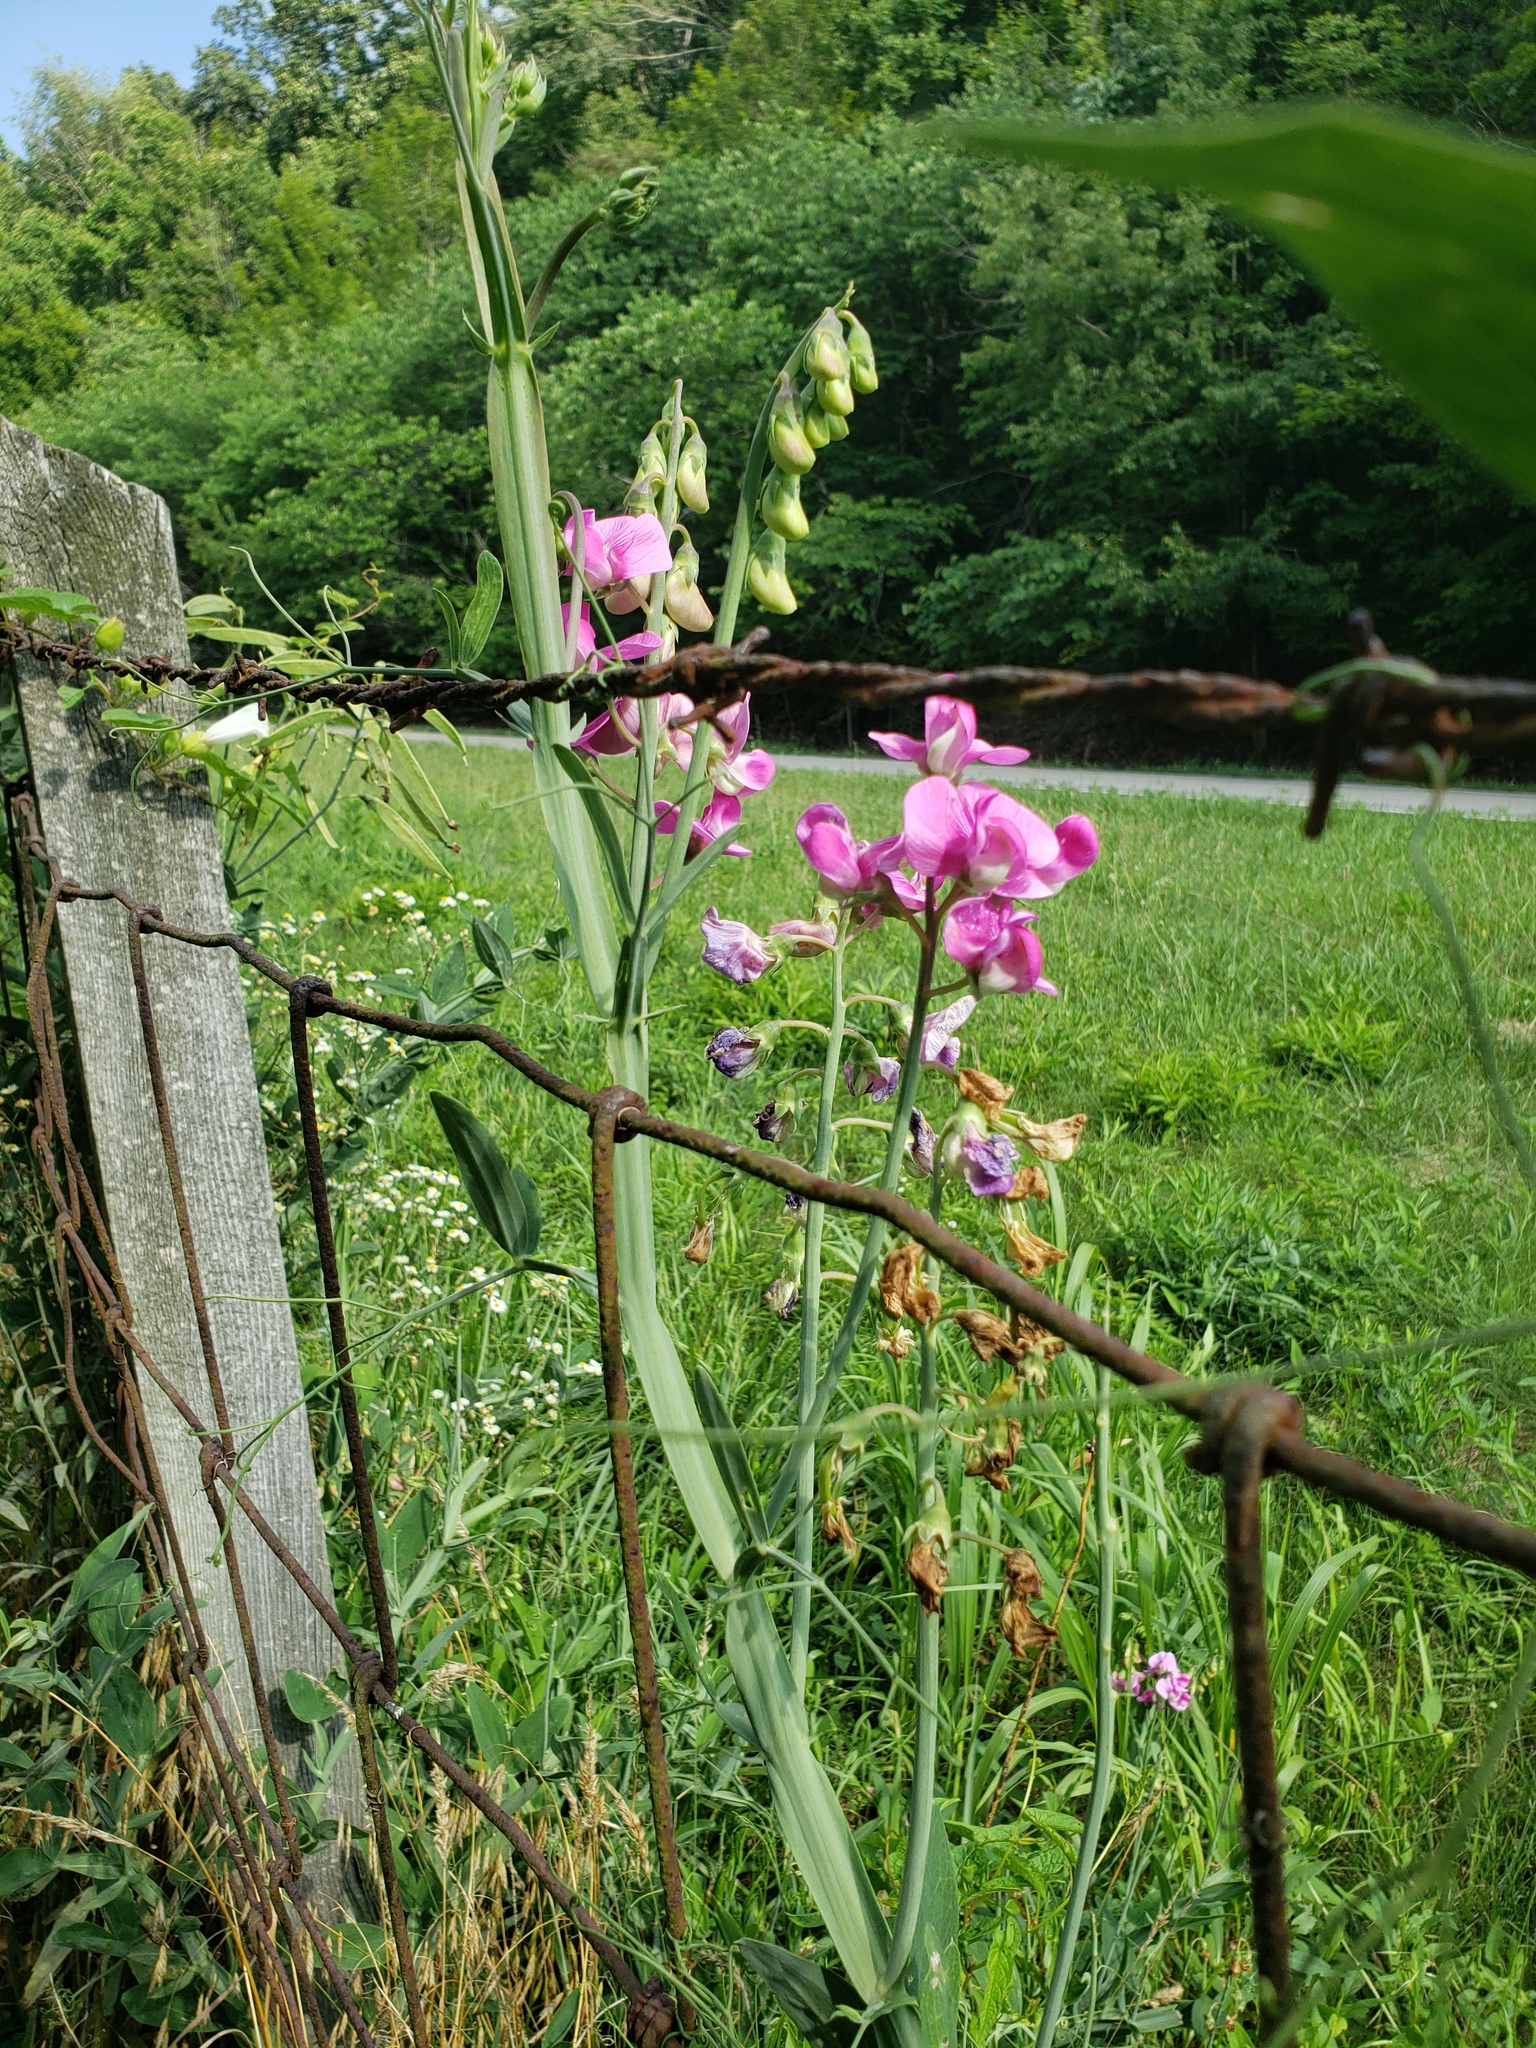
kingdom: Plantae
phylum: Tracheophyta
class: Magnoliopsida
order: Fabales
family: Fabaceae
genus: Lathyrus
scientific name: Lathyrus latifolius
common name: Perennial pea
